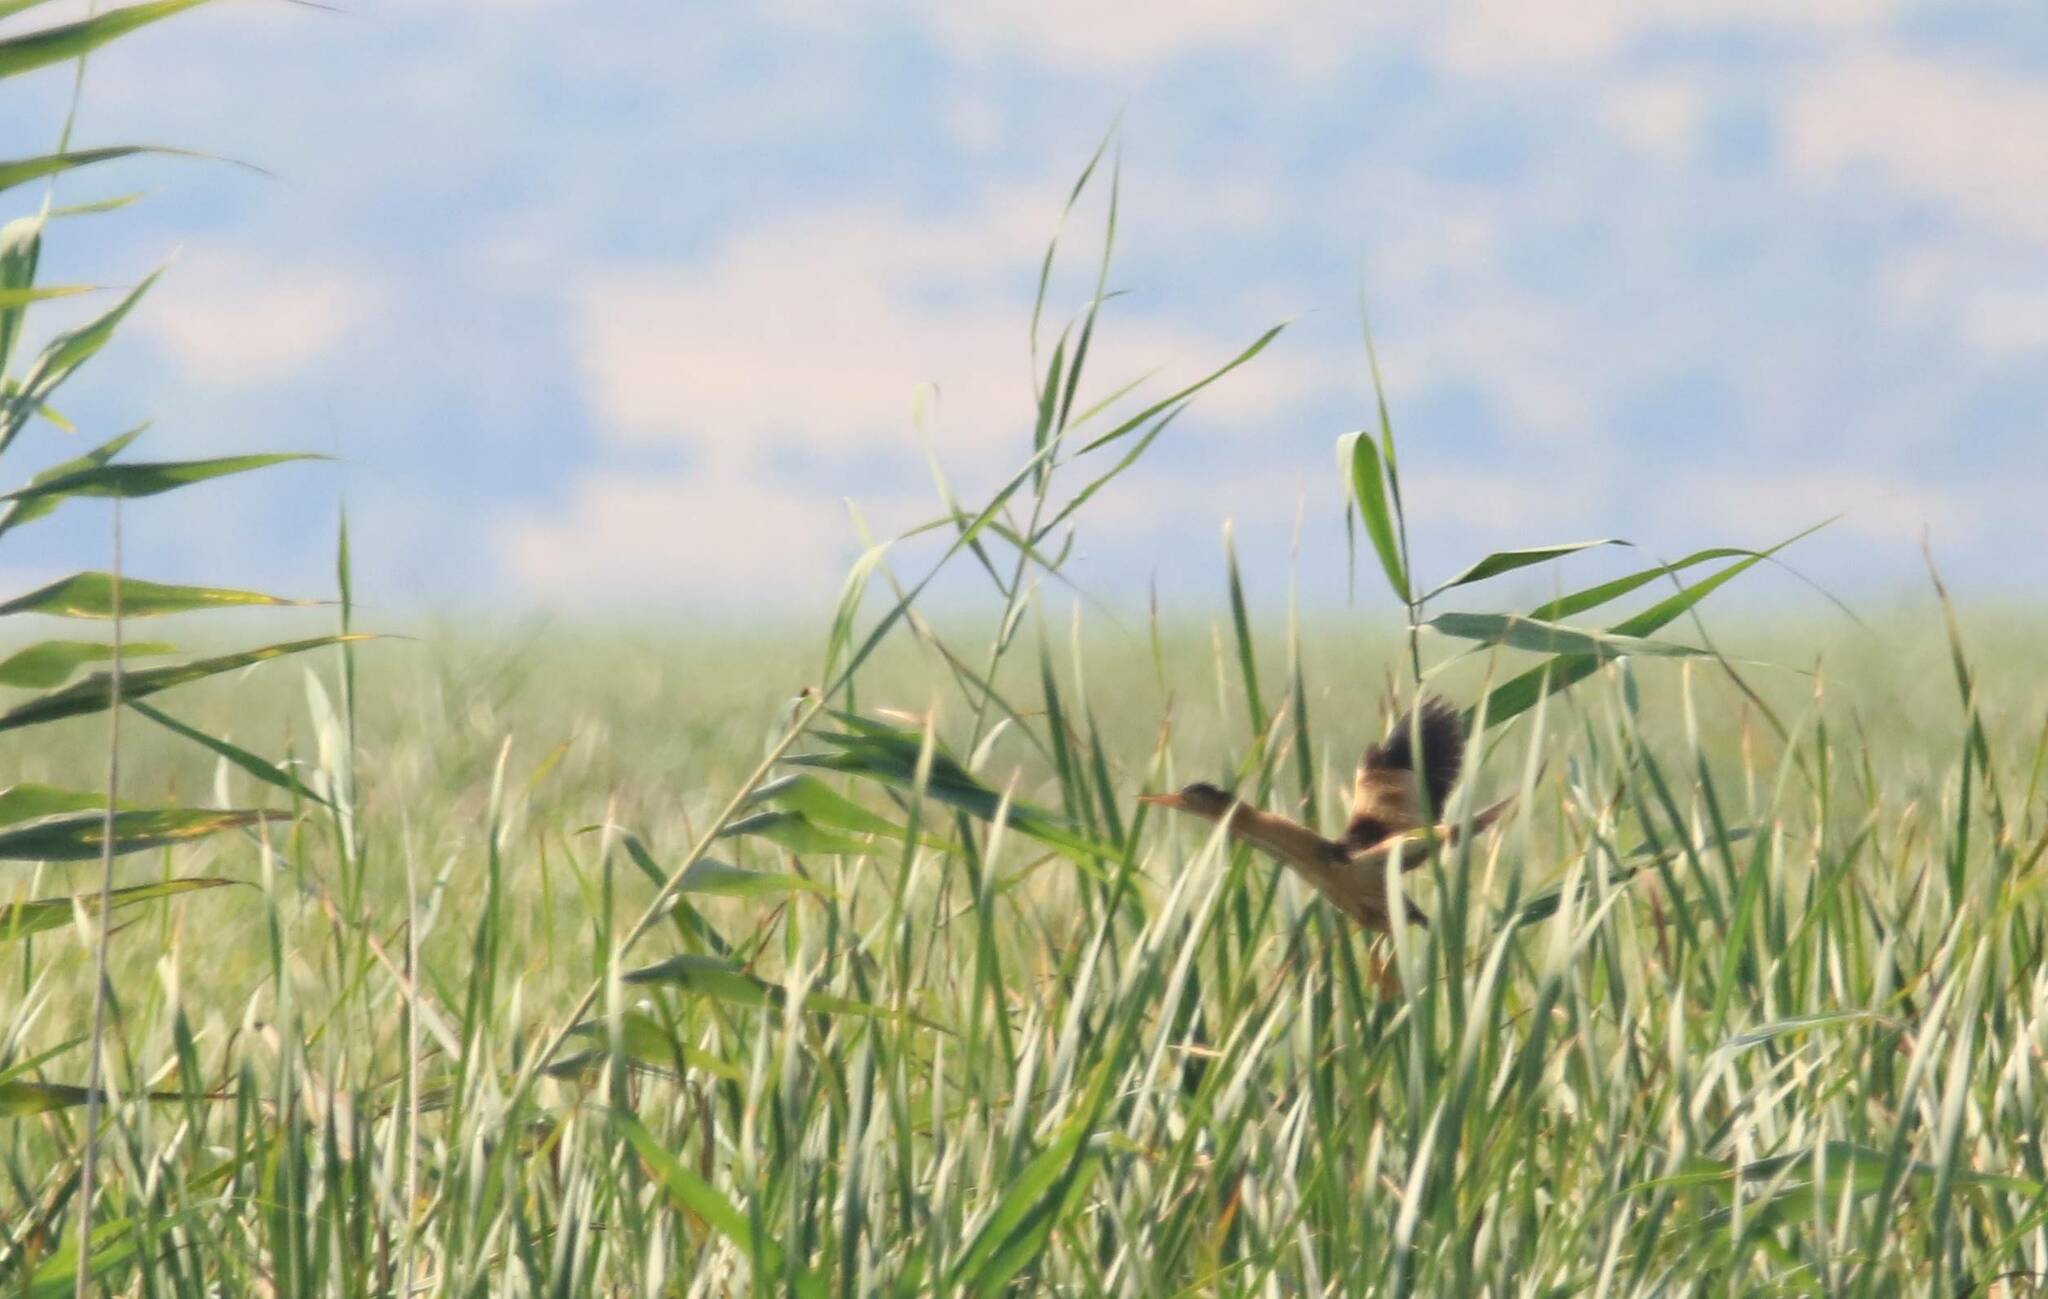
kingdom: Animalia
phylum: Chordata
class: Aves
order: Pelecaniformes
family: Ardeidae
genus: Ixobrychus
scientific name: Ixobrychus minutus
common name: Little bittern
